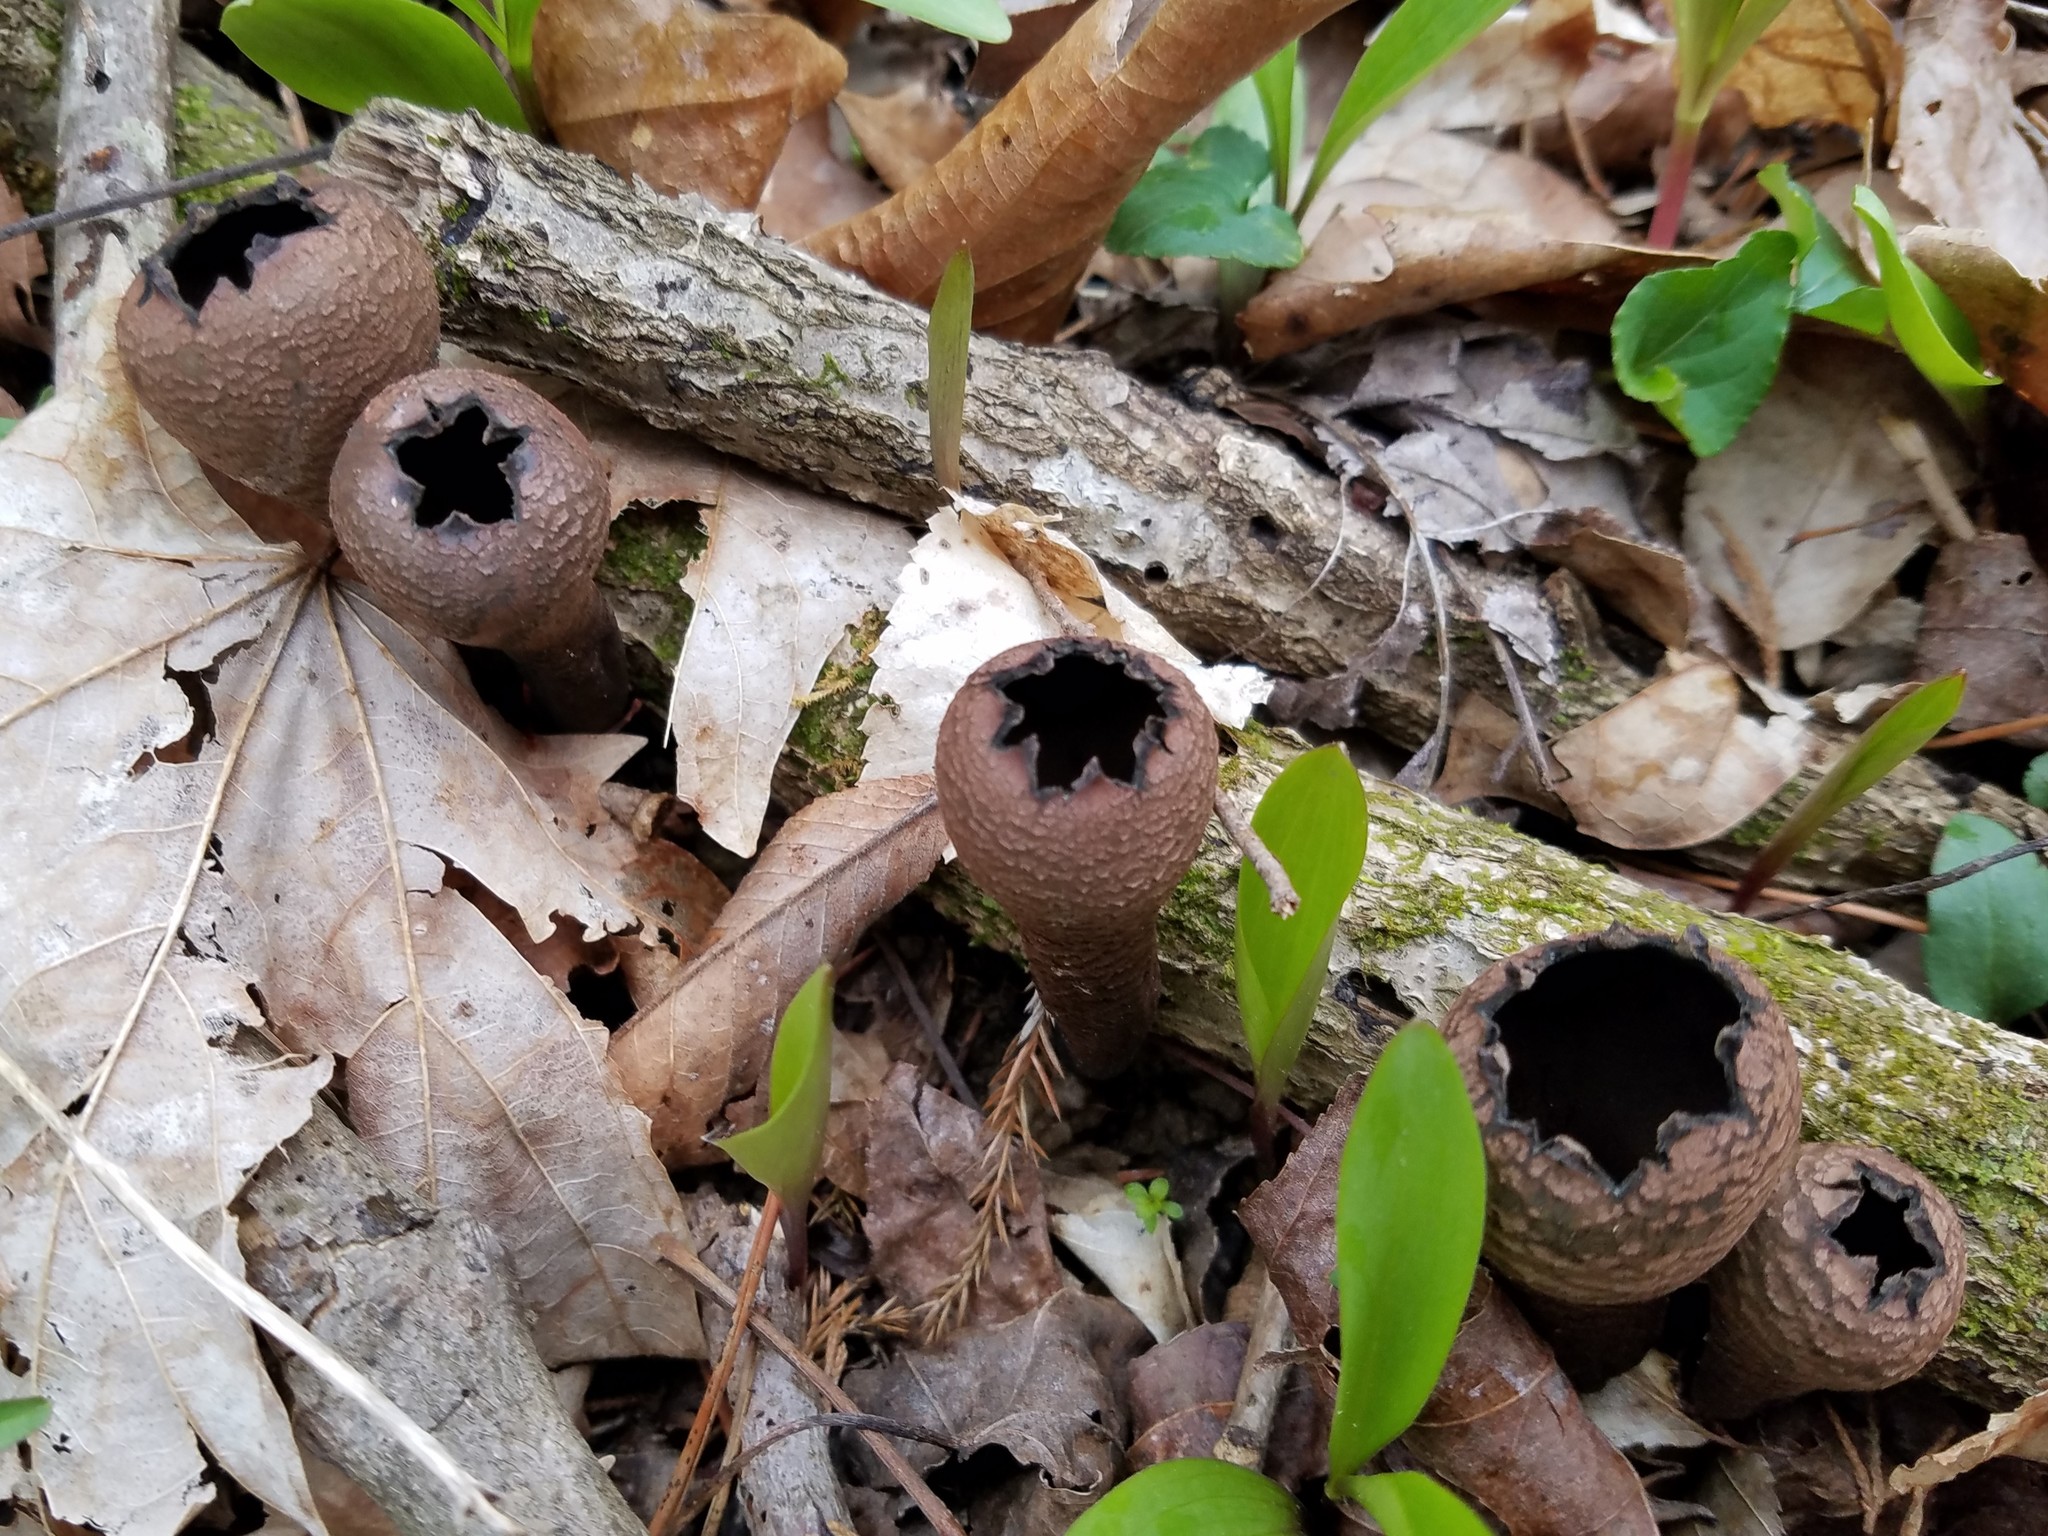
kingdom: Fungi
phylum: Ascomycota
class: Pezizomycetes
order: Pezizales
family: Sarcosomataceae
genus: Urnula
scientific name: Urnula craterium
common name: Devil's urn
